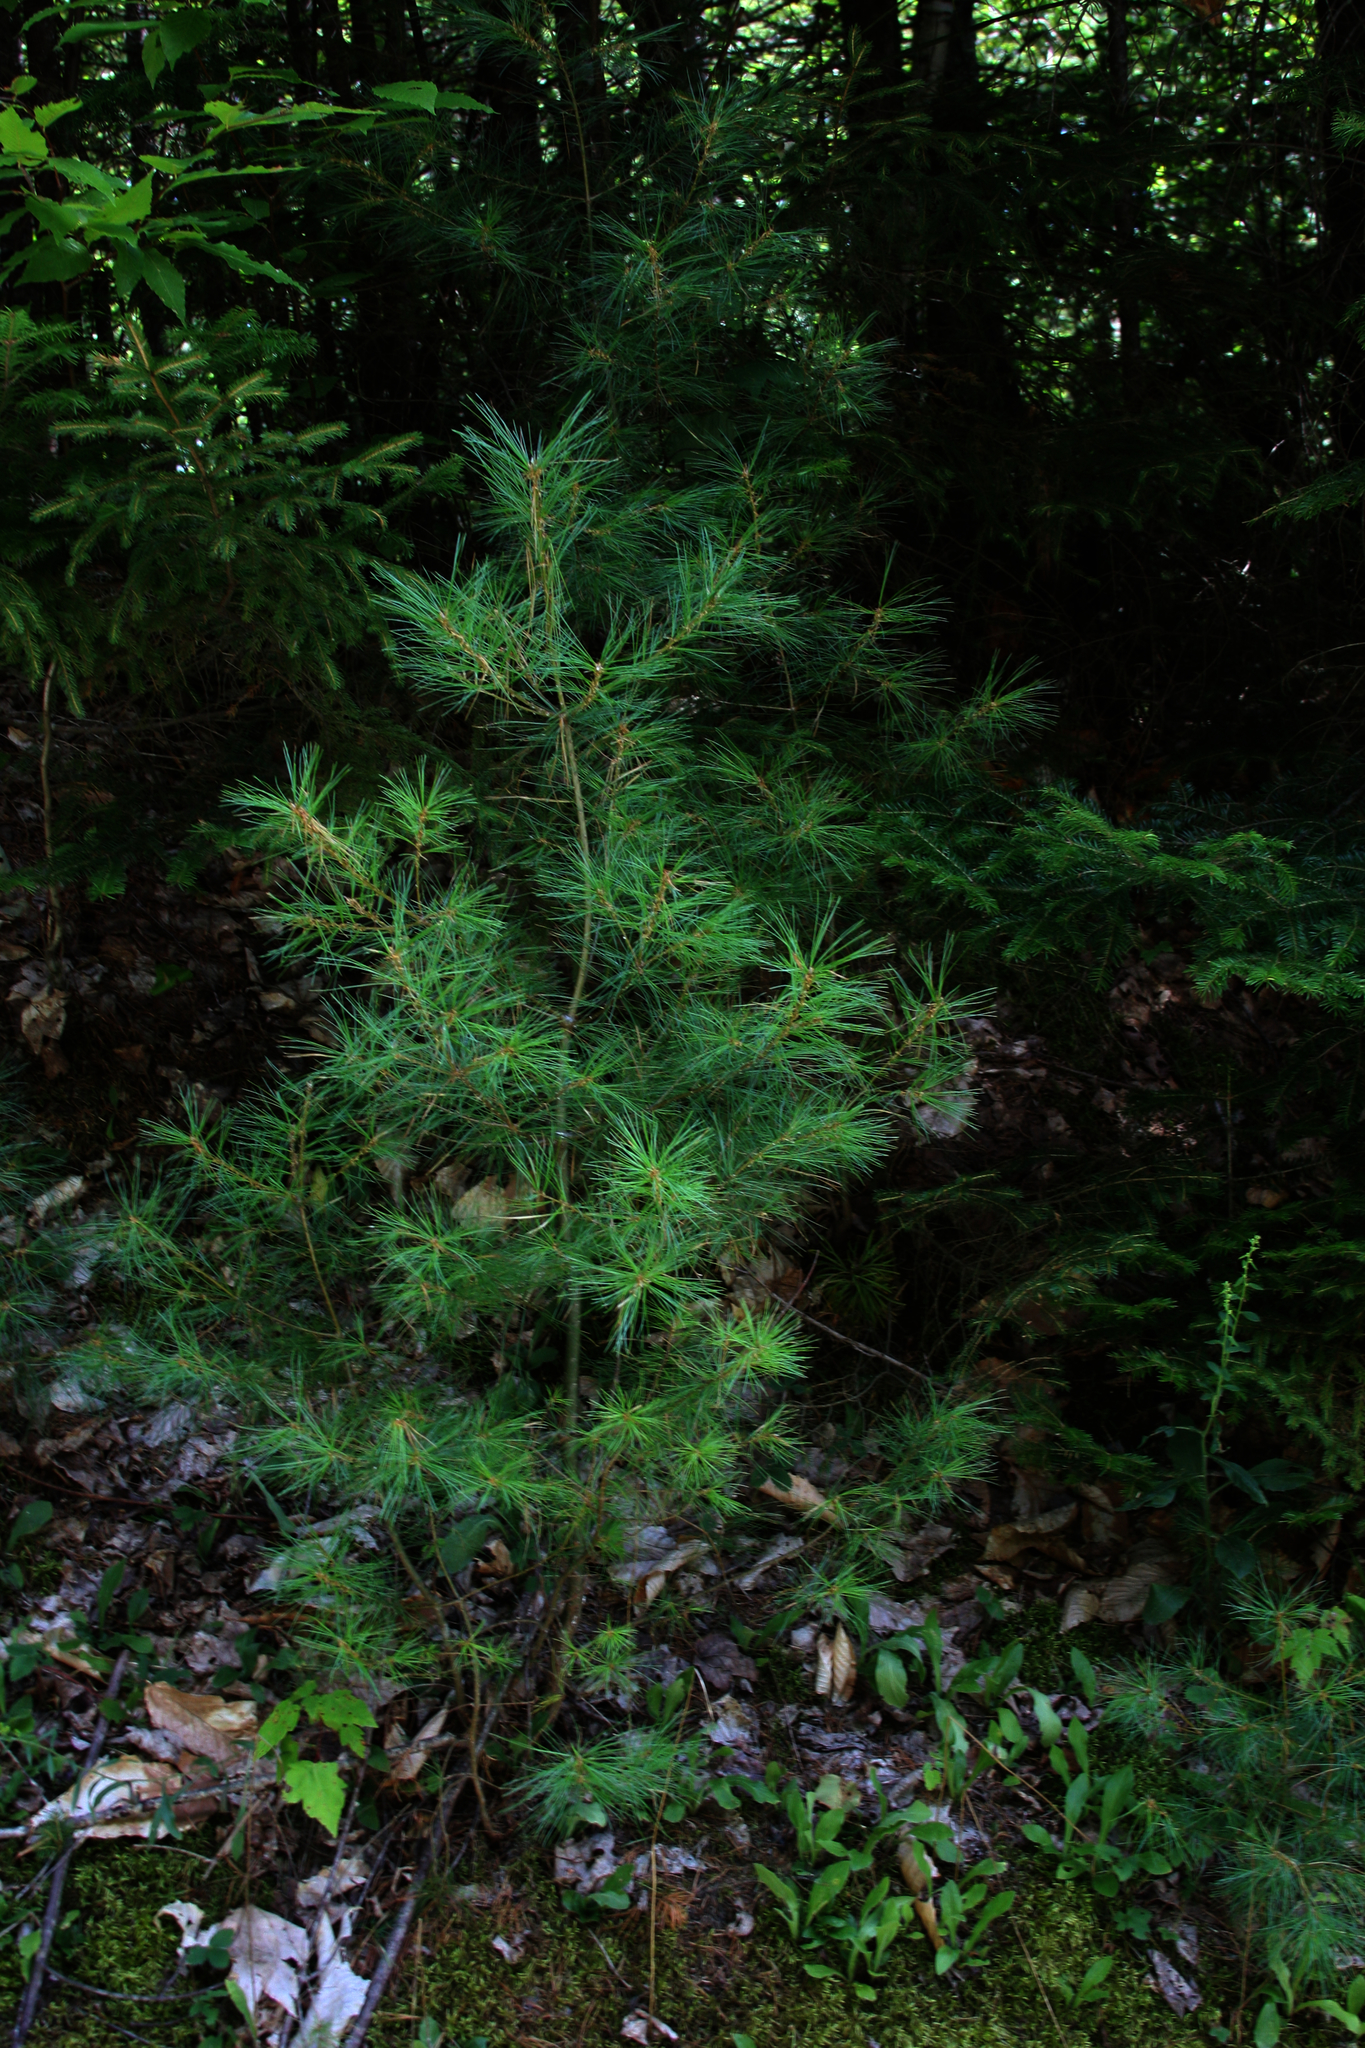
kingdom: Plantae
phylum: Tracheophyta
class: Pinopsida
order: Pinales
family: Pinaceae
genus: Pinus
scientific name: Pinus strobus
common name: Weymouth pine
